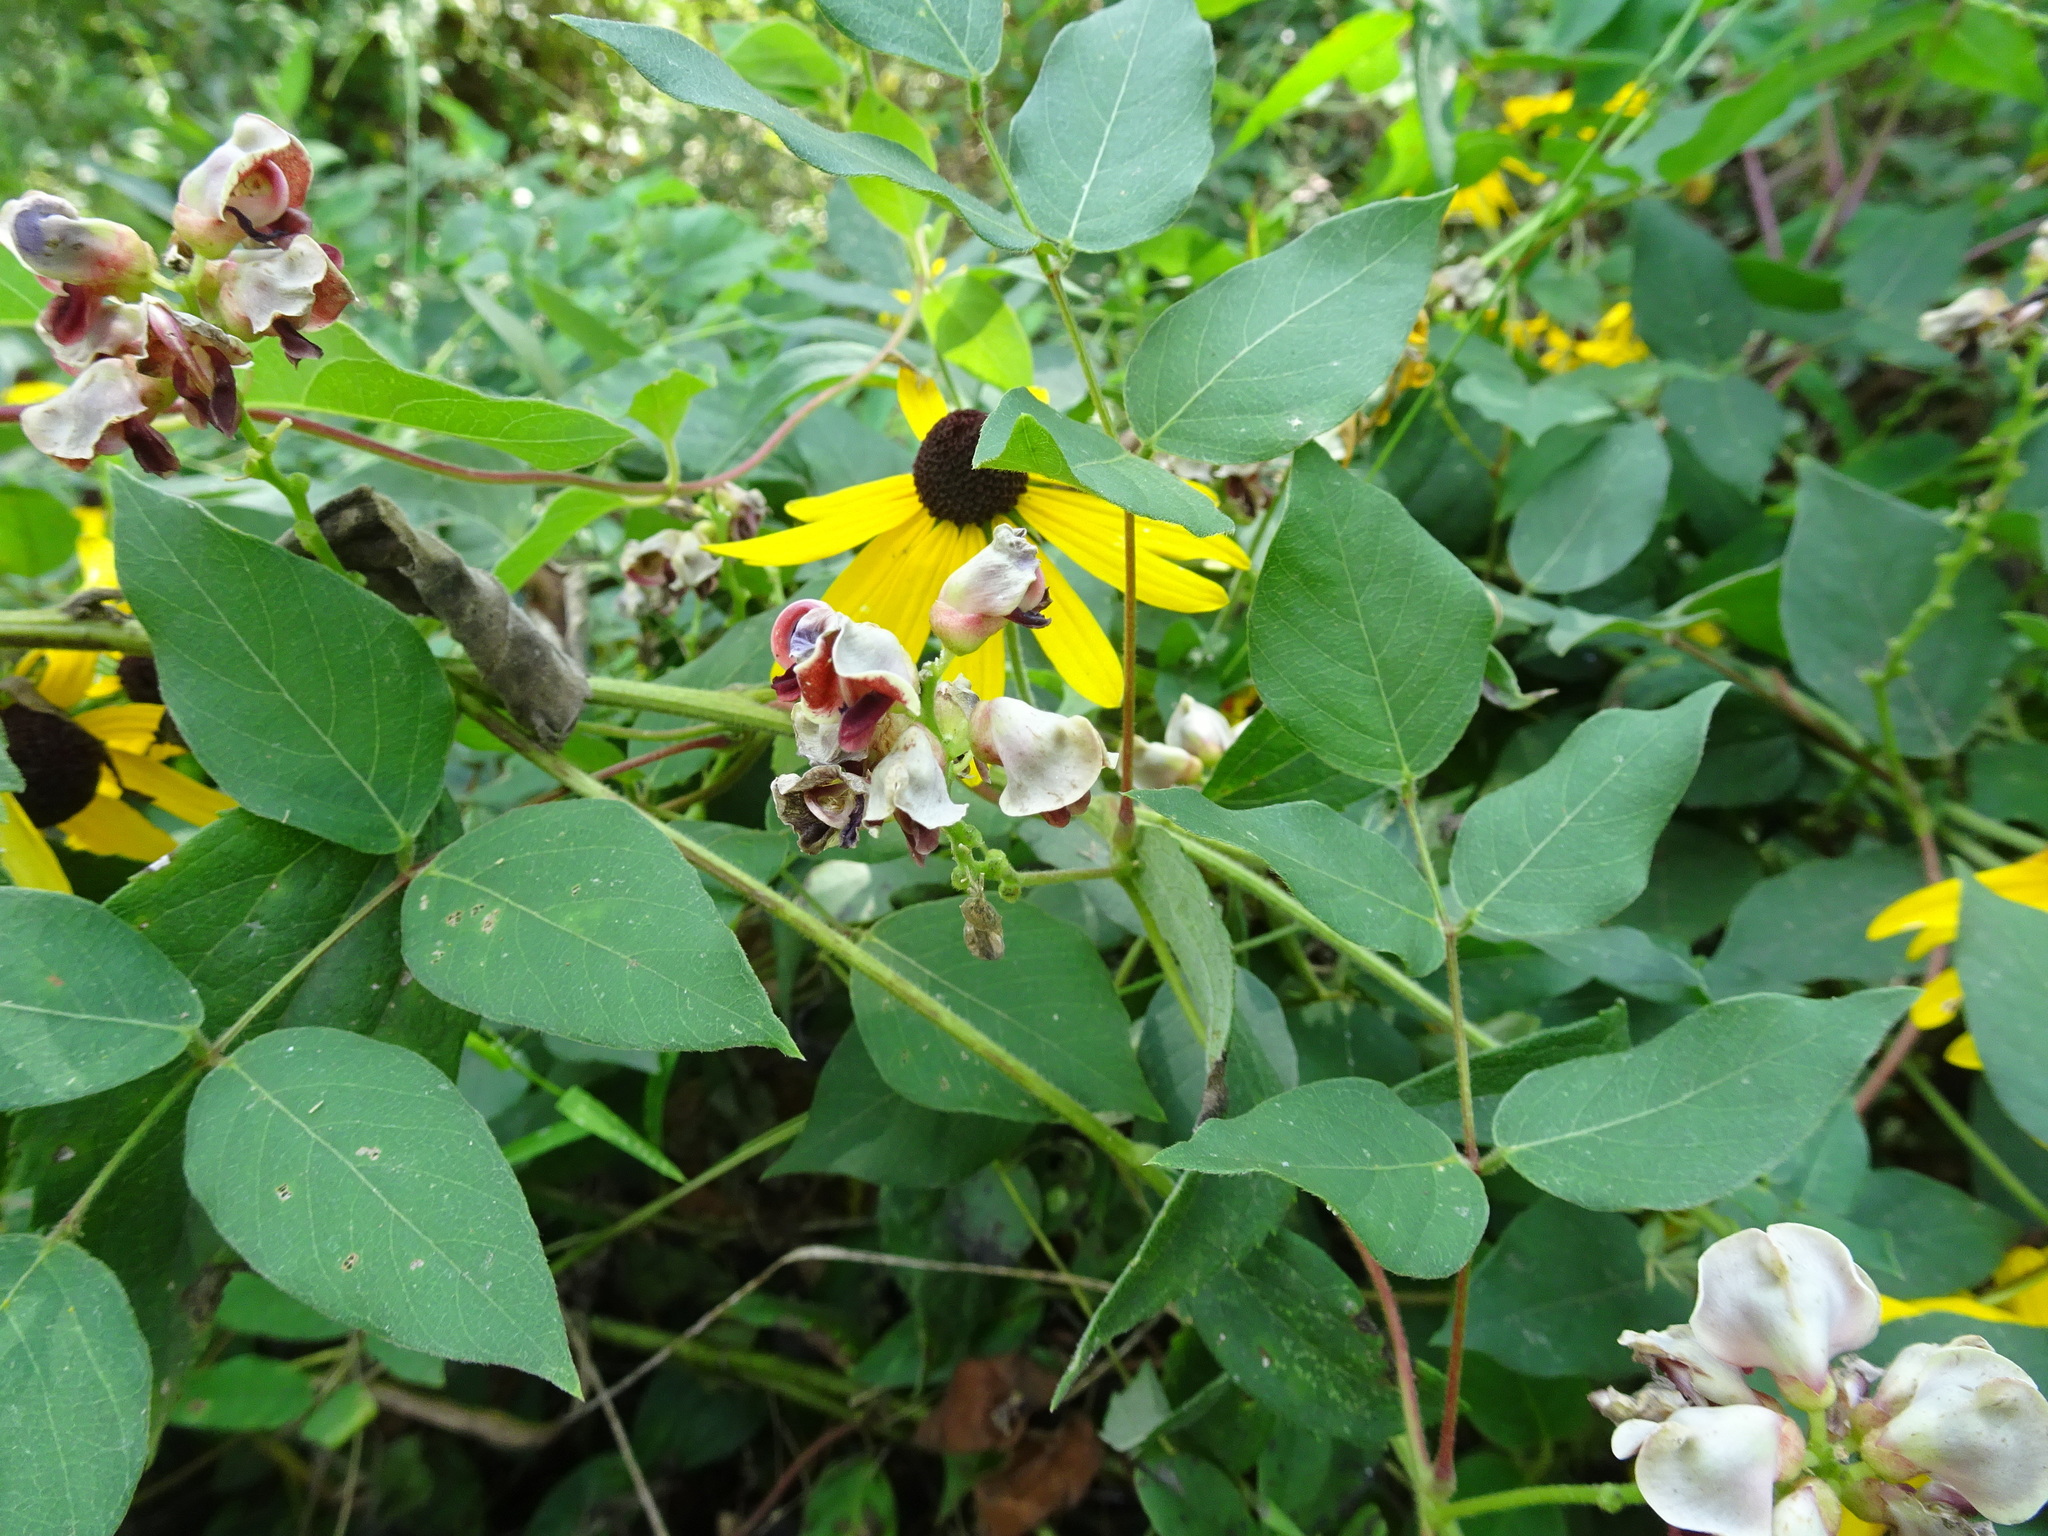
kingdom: Plantae
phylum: Tracheophyta
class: Magnoliopsida
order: Fabales
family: Fabaceae
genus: Apios
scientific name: Apios americana
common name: American potato-bean
